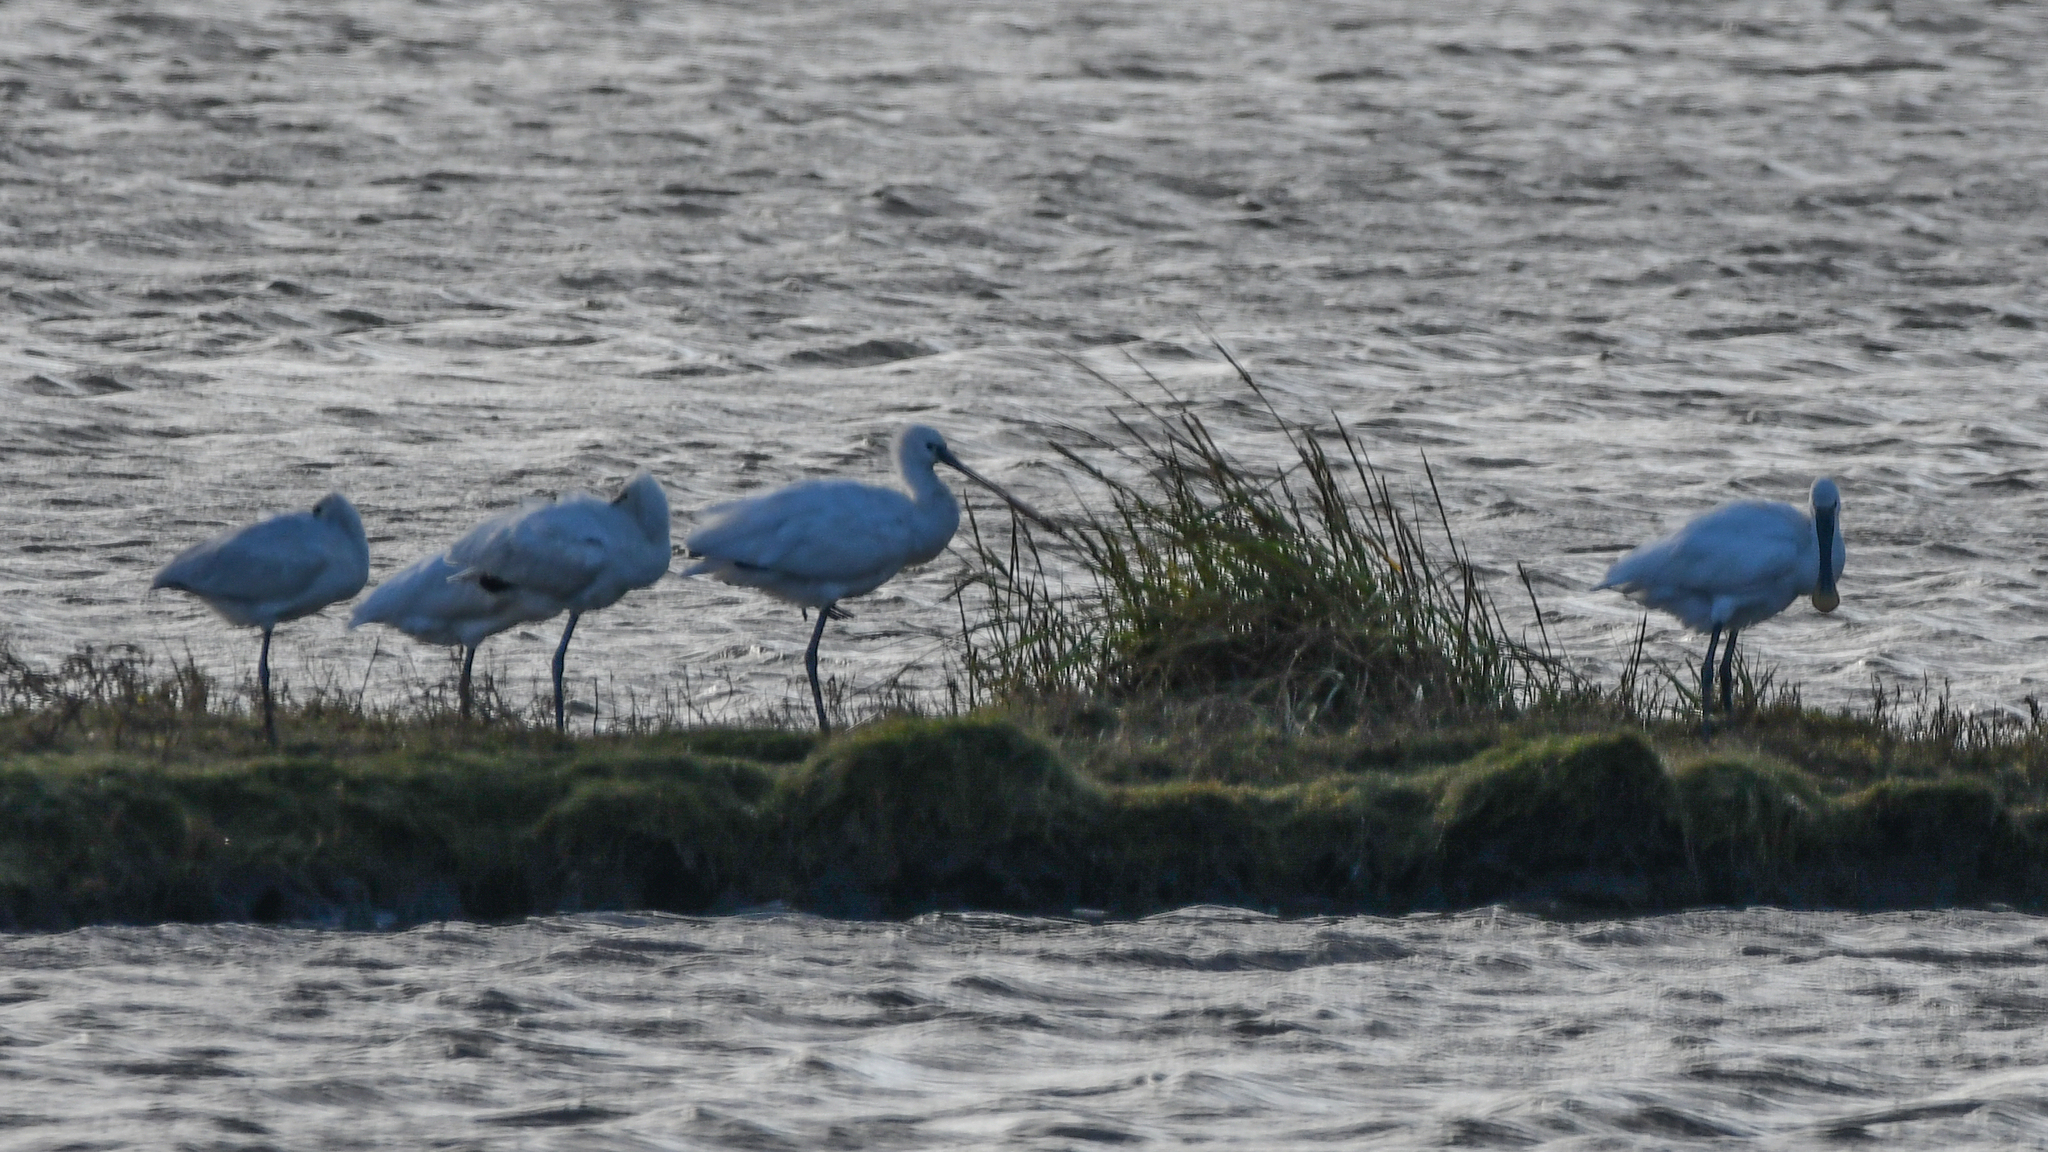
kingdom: Animalia
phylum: Chordata
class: Aves
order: Pelecaniformes
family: Threskiornithidae
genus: Platalea
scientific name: Platalea leucorodia
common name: Eurasian spoonbill
